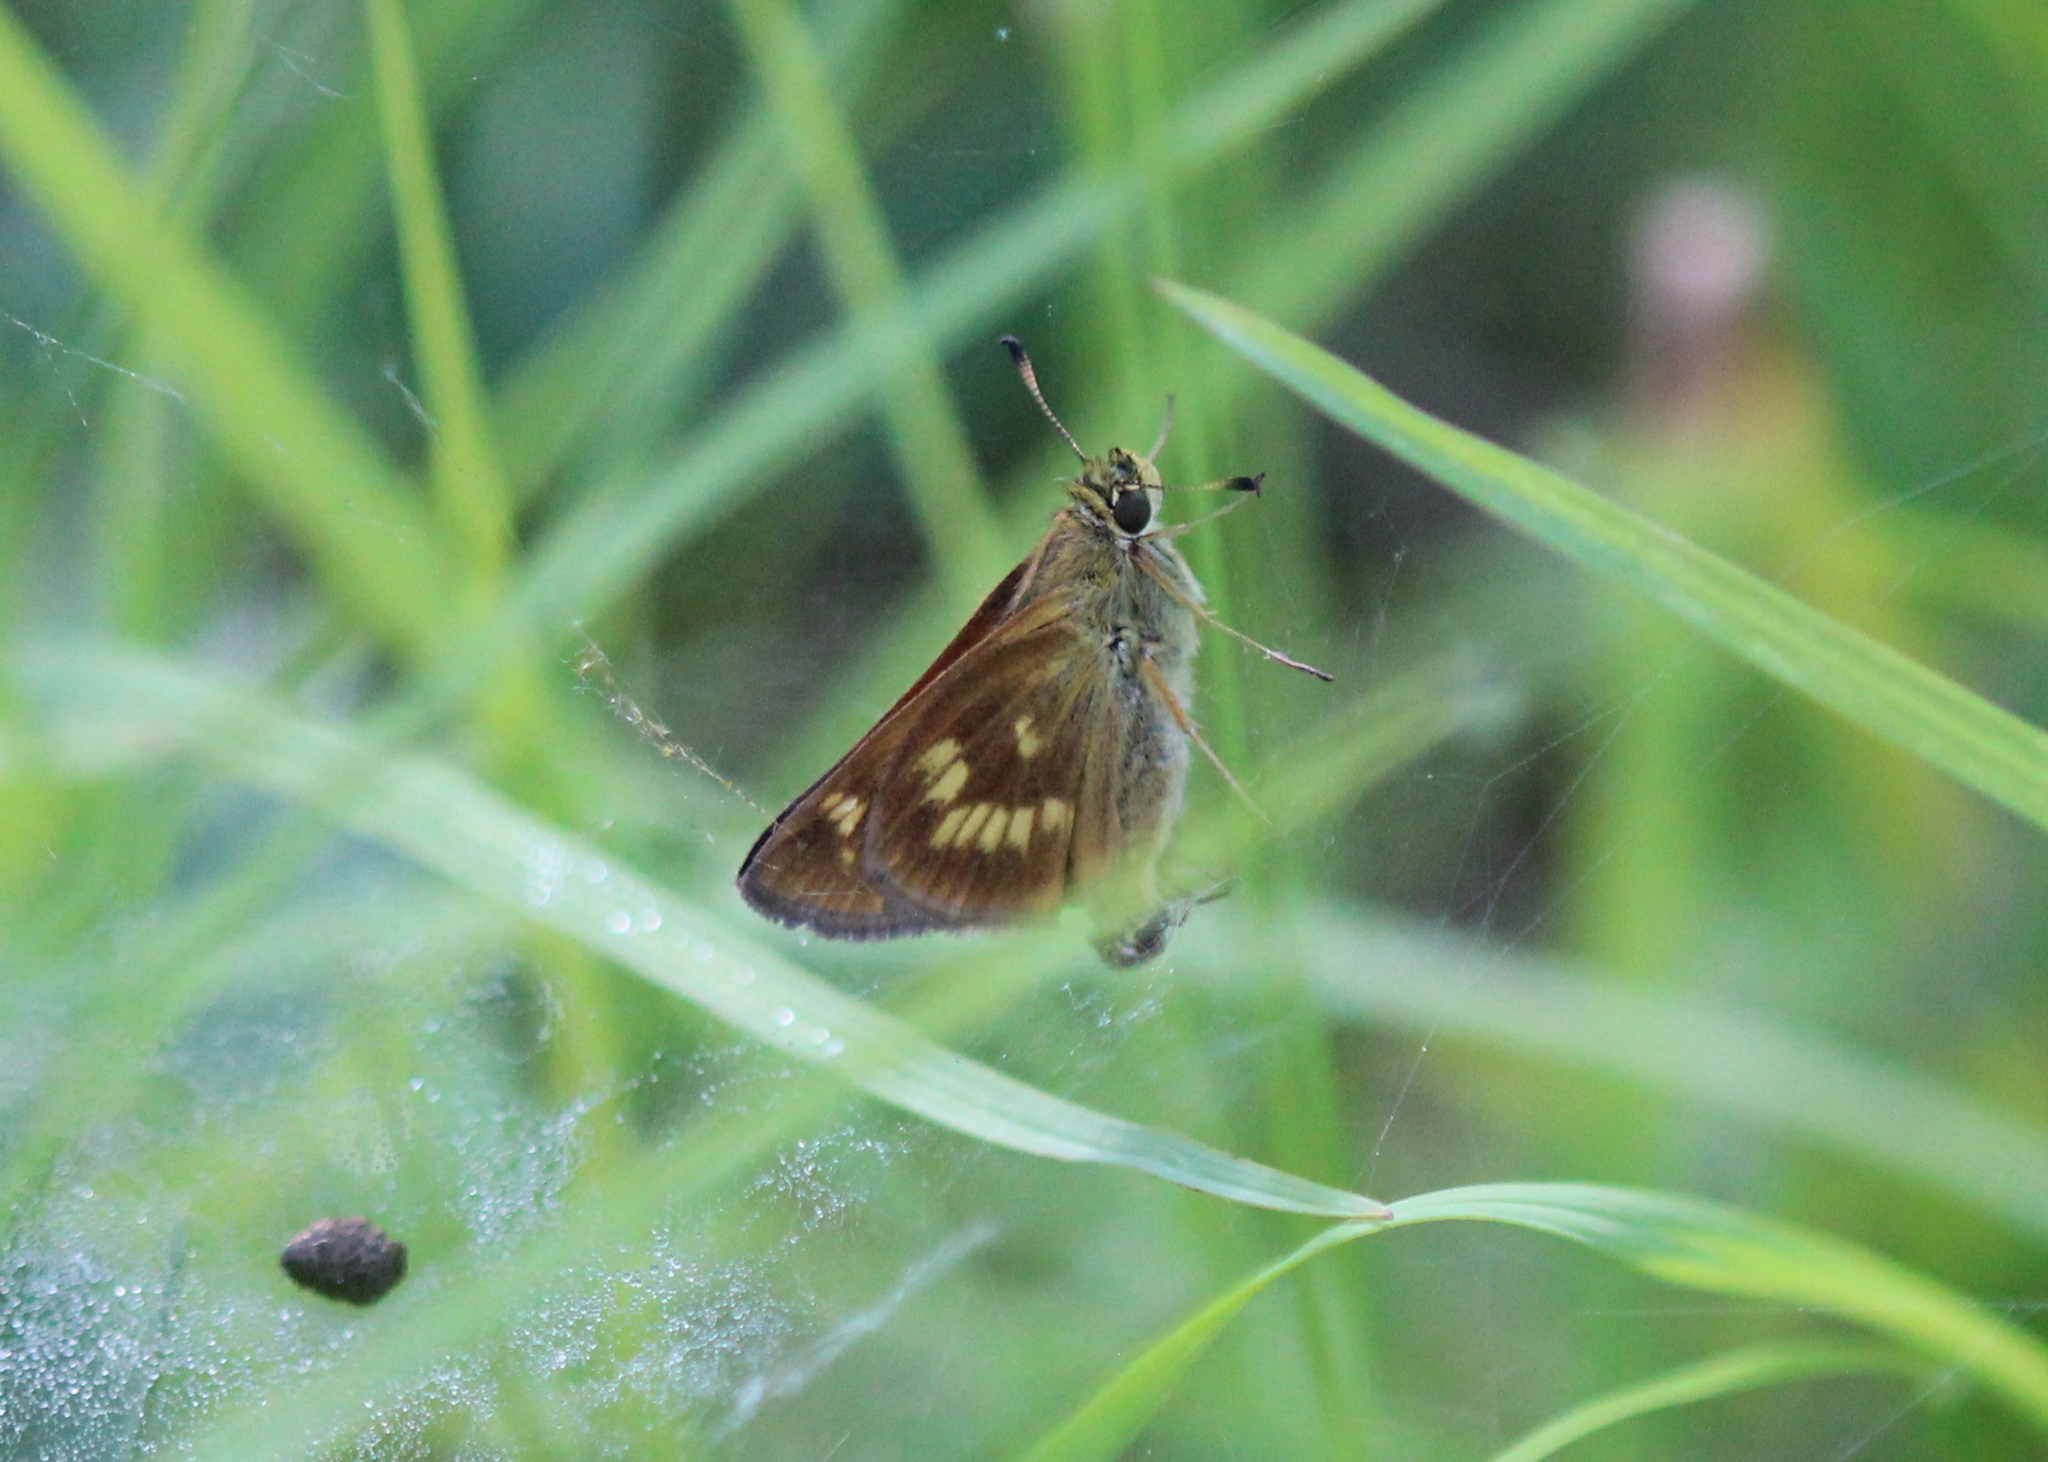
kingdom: Animalia
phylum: Arthropoda
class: Insecta
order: Lepidoptera
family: Hesperiidae
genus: Polites
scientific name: Polites mystic
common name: Long dash
